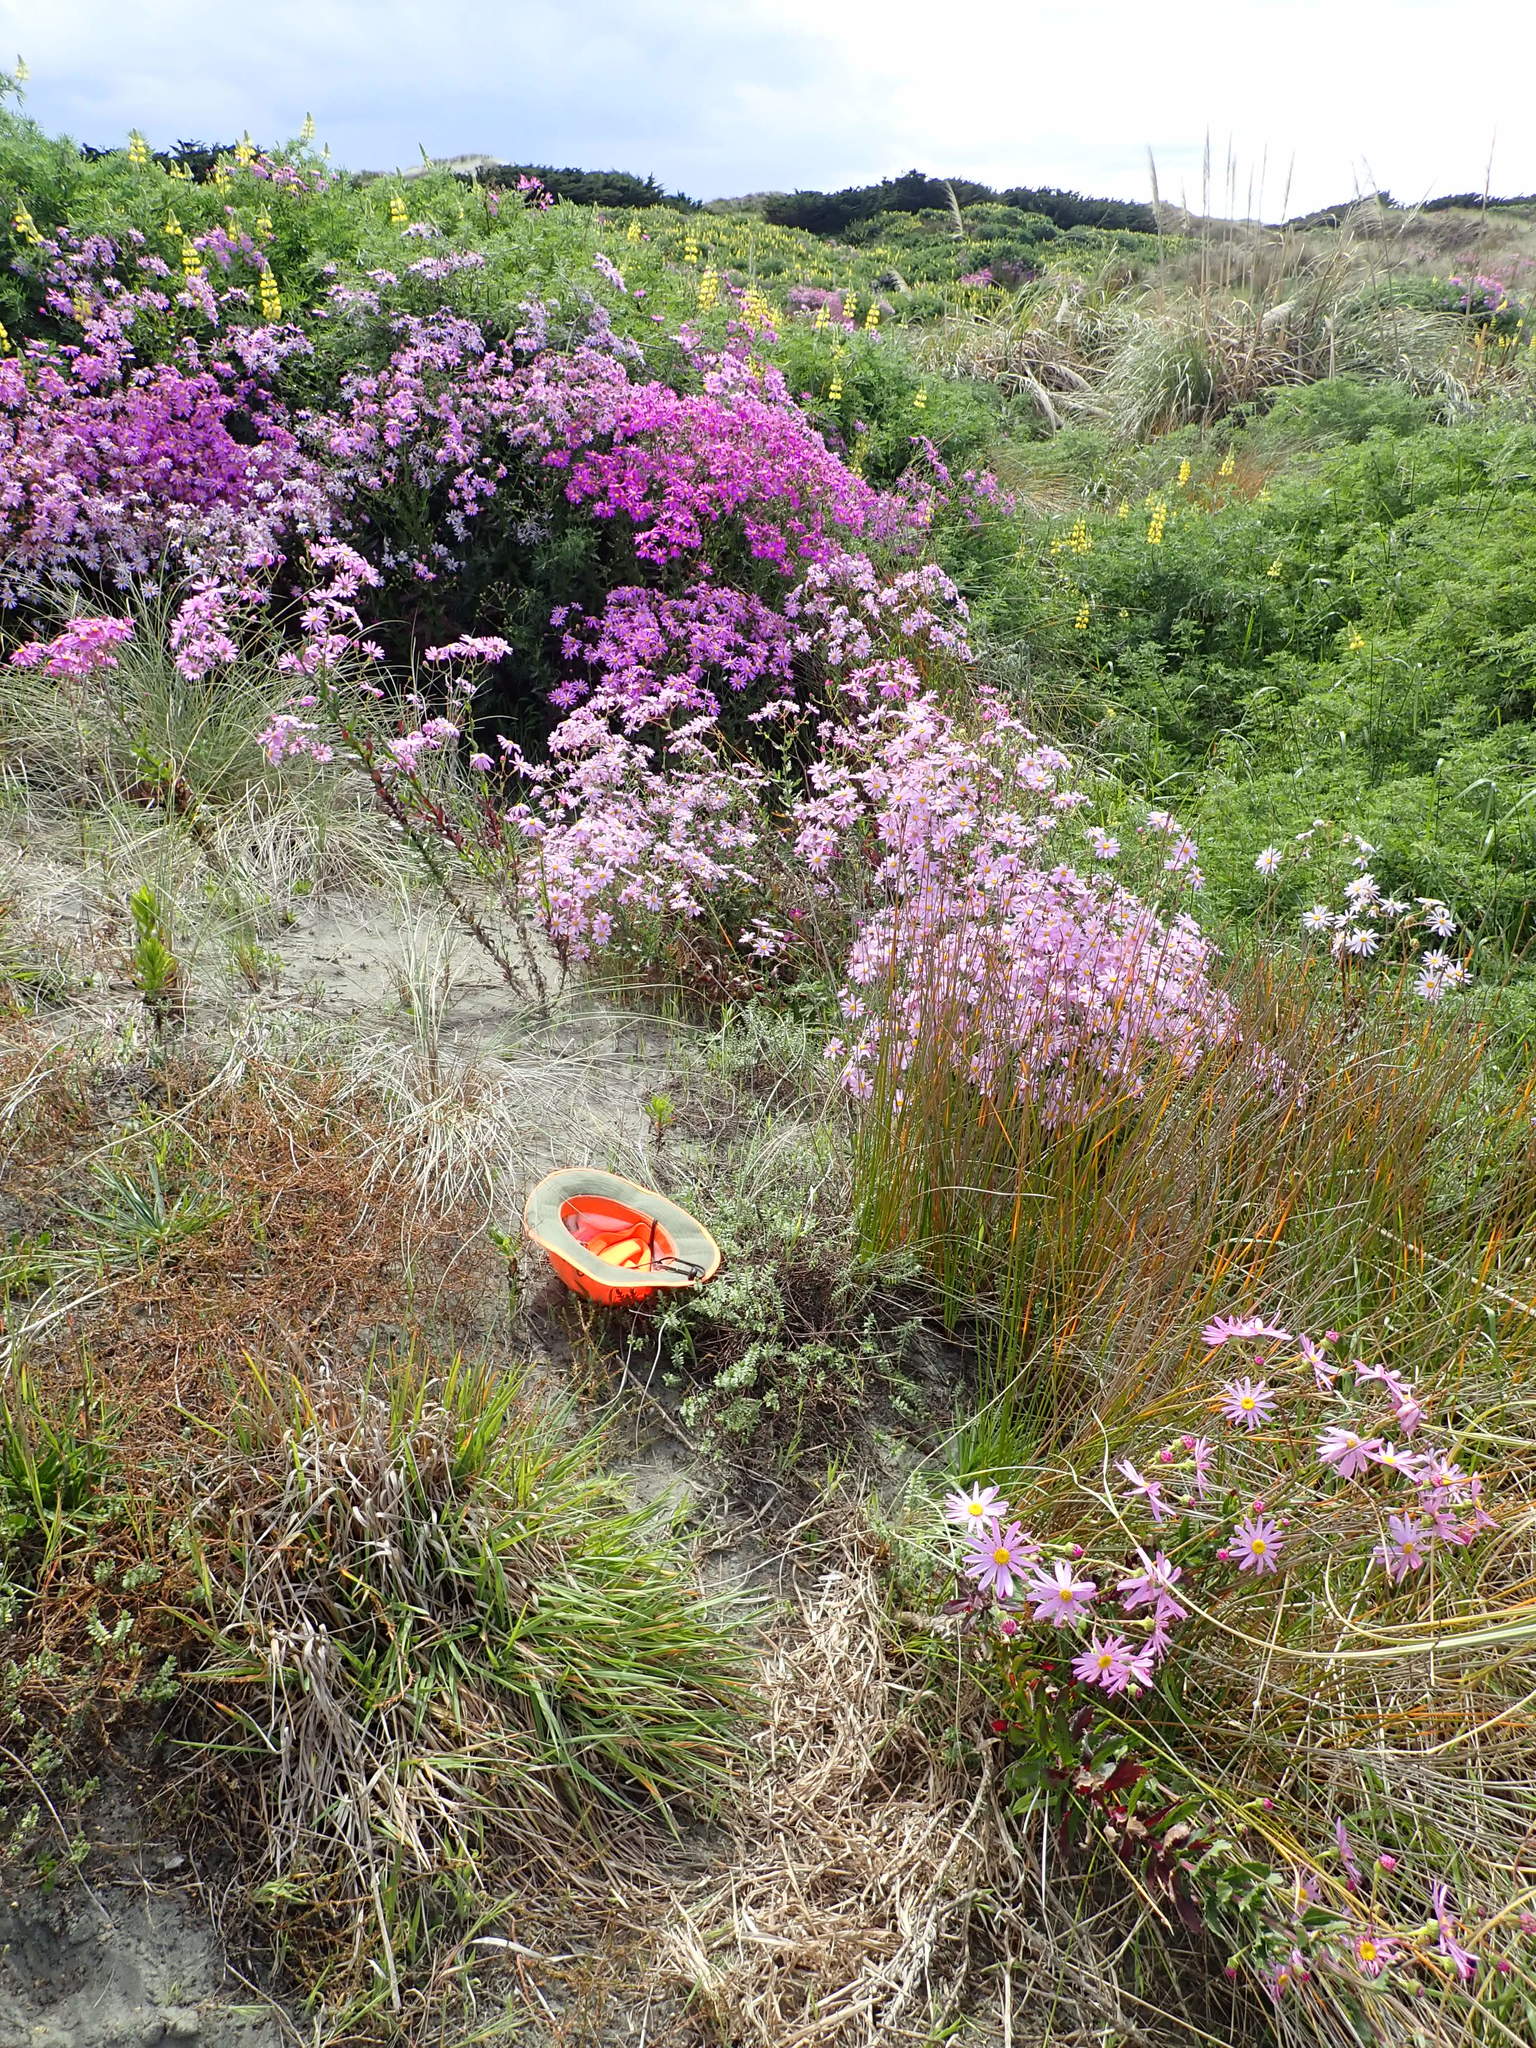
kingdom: Animalia
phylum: Arthropoda
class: Arachnida
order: Araneae
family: Theridiidae
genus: Latrodectus
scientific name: Latrodectus katipo
